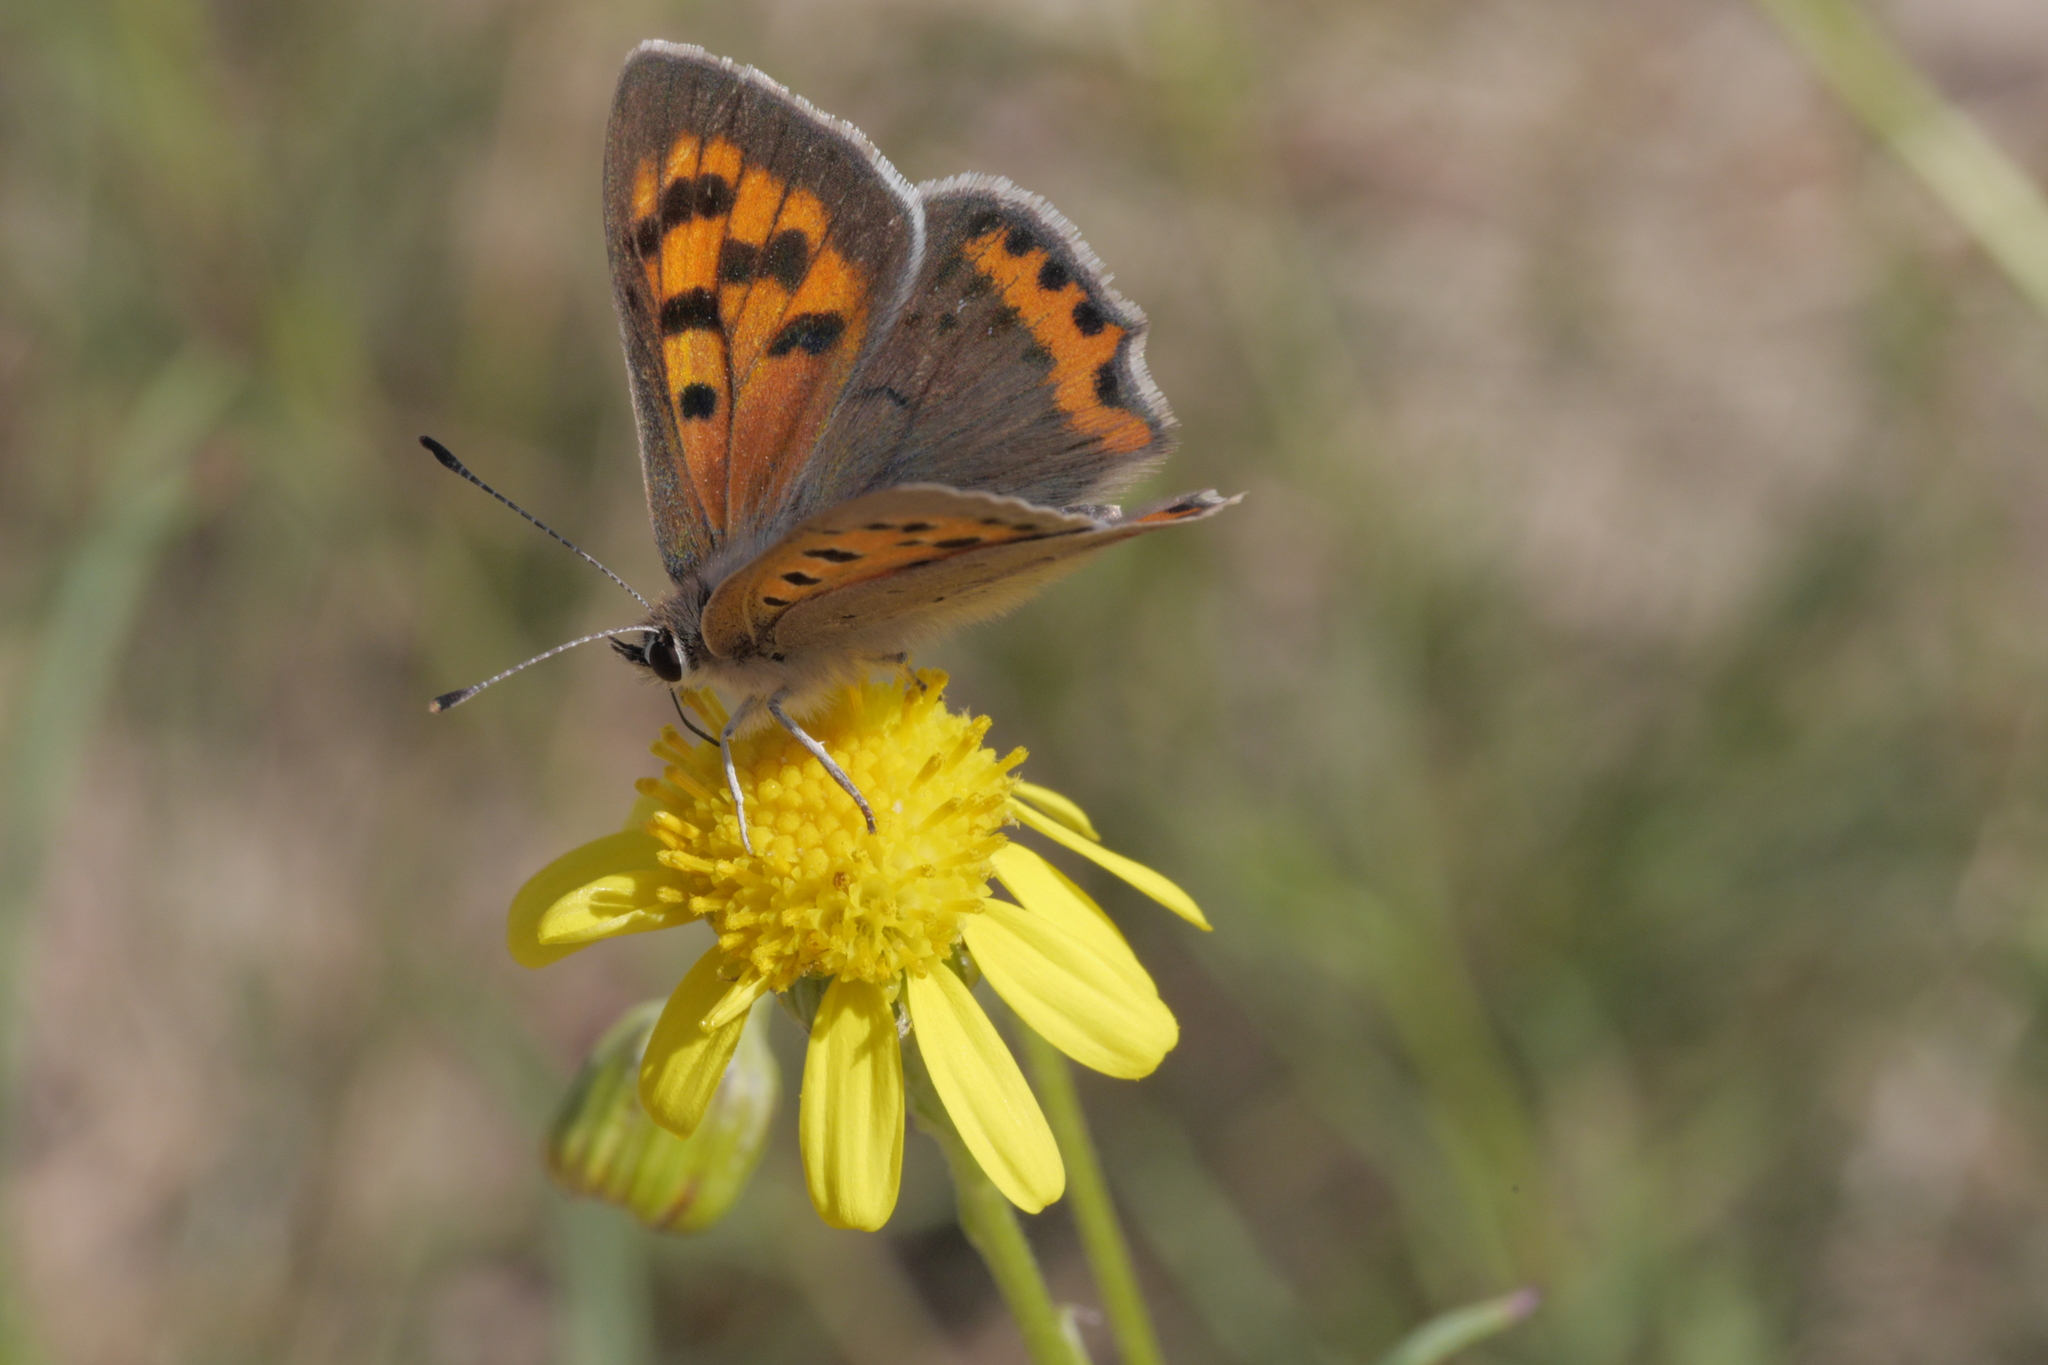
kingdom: Animalia
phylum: Arthropoda
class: Insecta
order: Lepidoptera
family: Lycaenidae
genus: Lycaena
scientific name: Lycaena phlaeas
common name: Small copper
